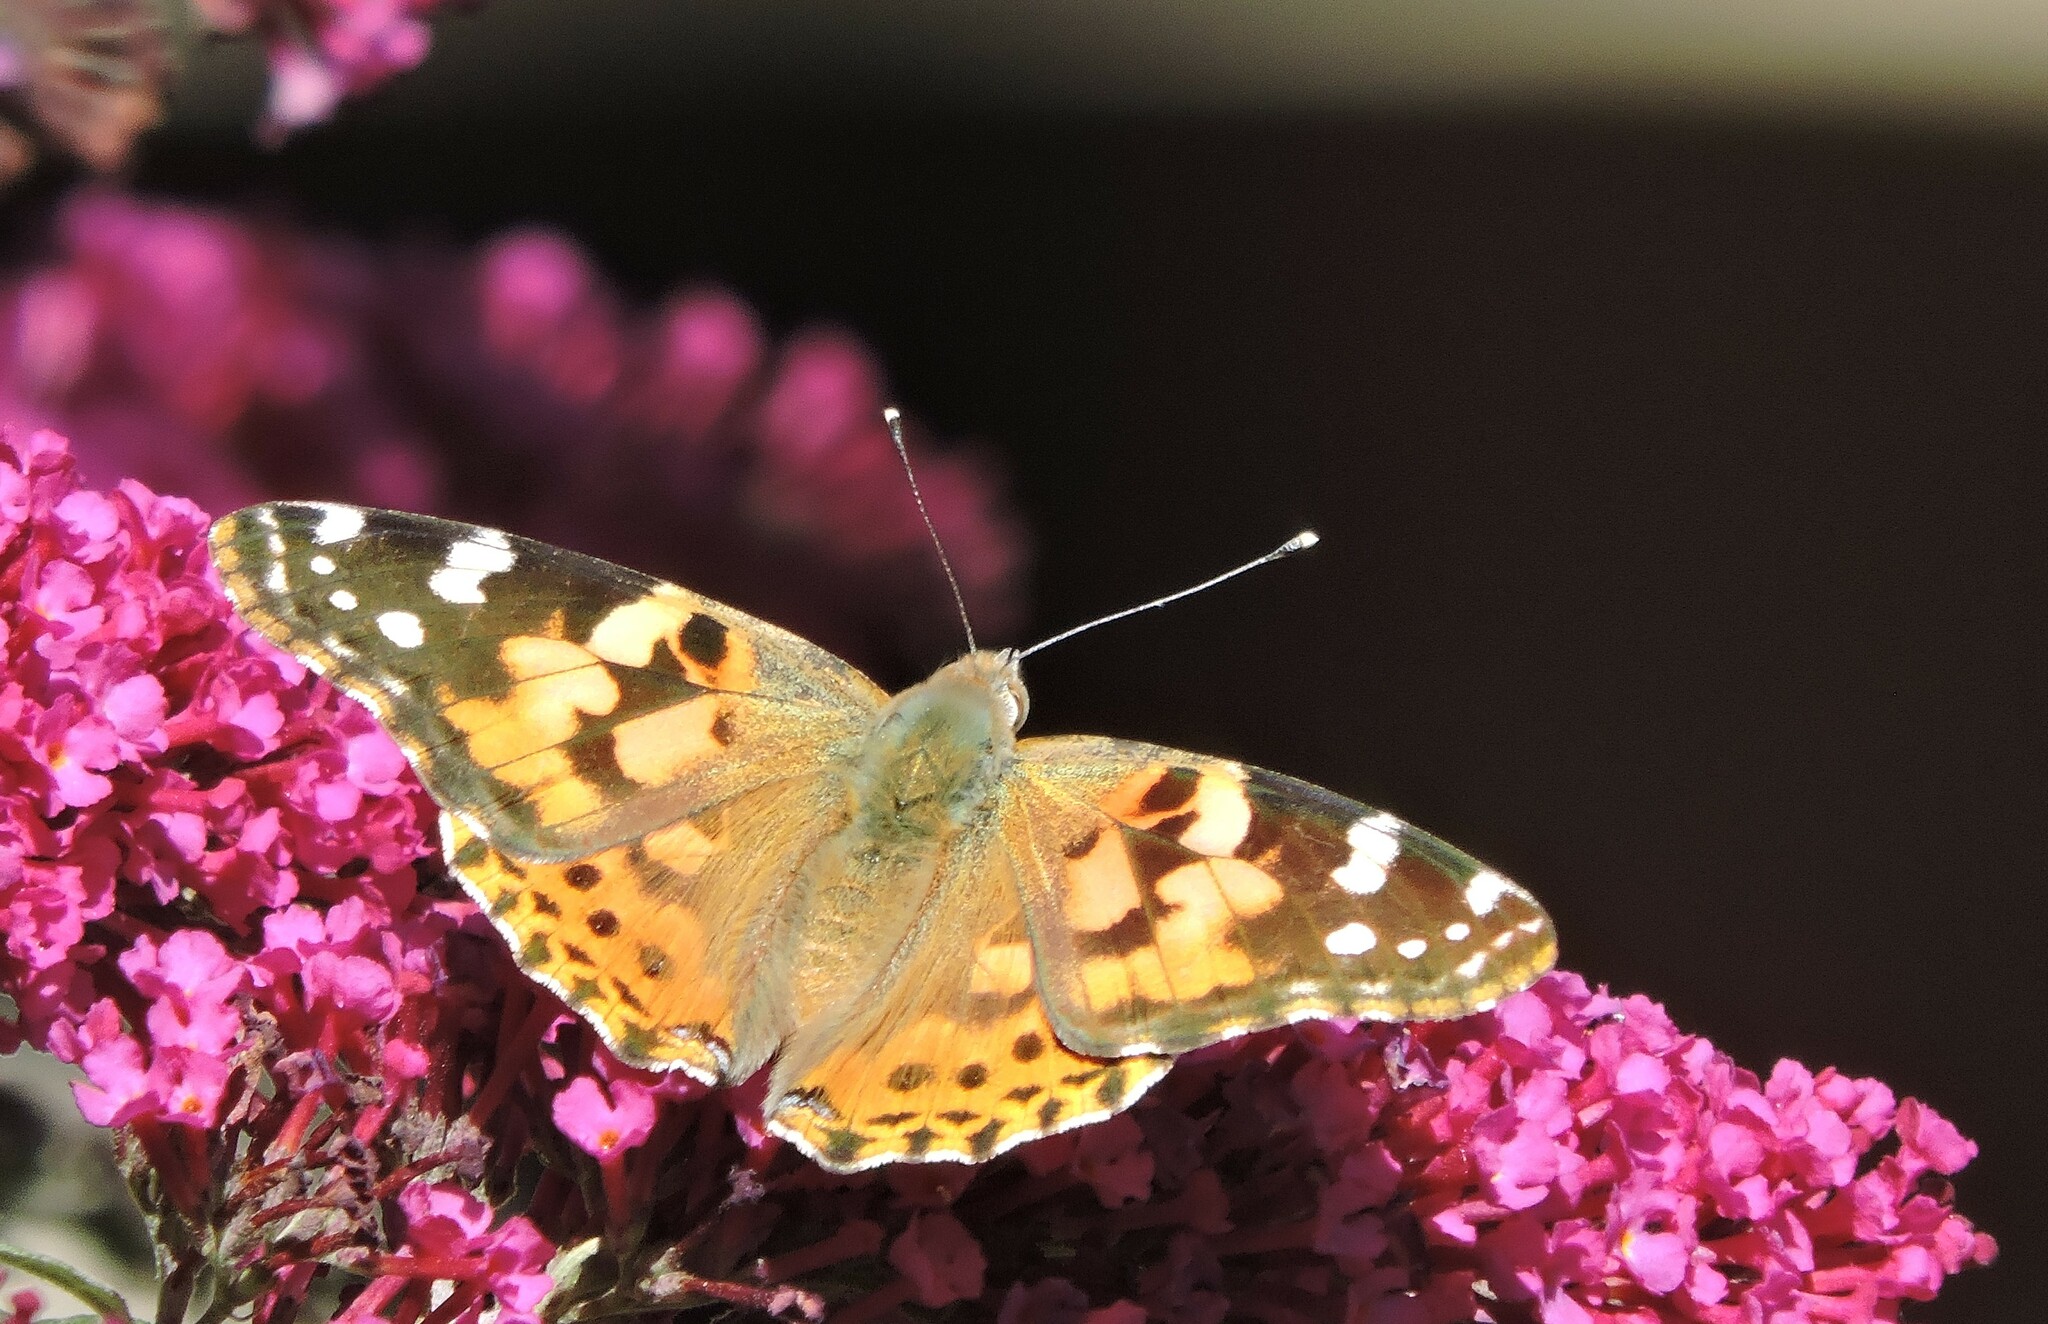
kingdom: Animalia
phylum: Arthropoda
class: Insecta
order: Lepidoptera
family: Nymphalidae
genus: Vanessa
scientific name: Vanessa cardui
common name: Painted lady
